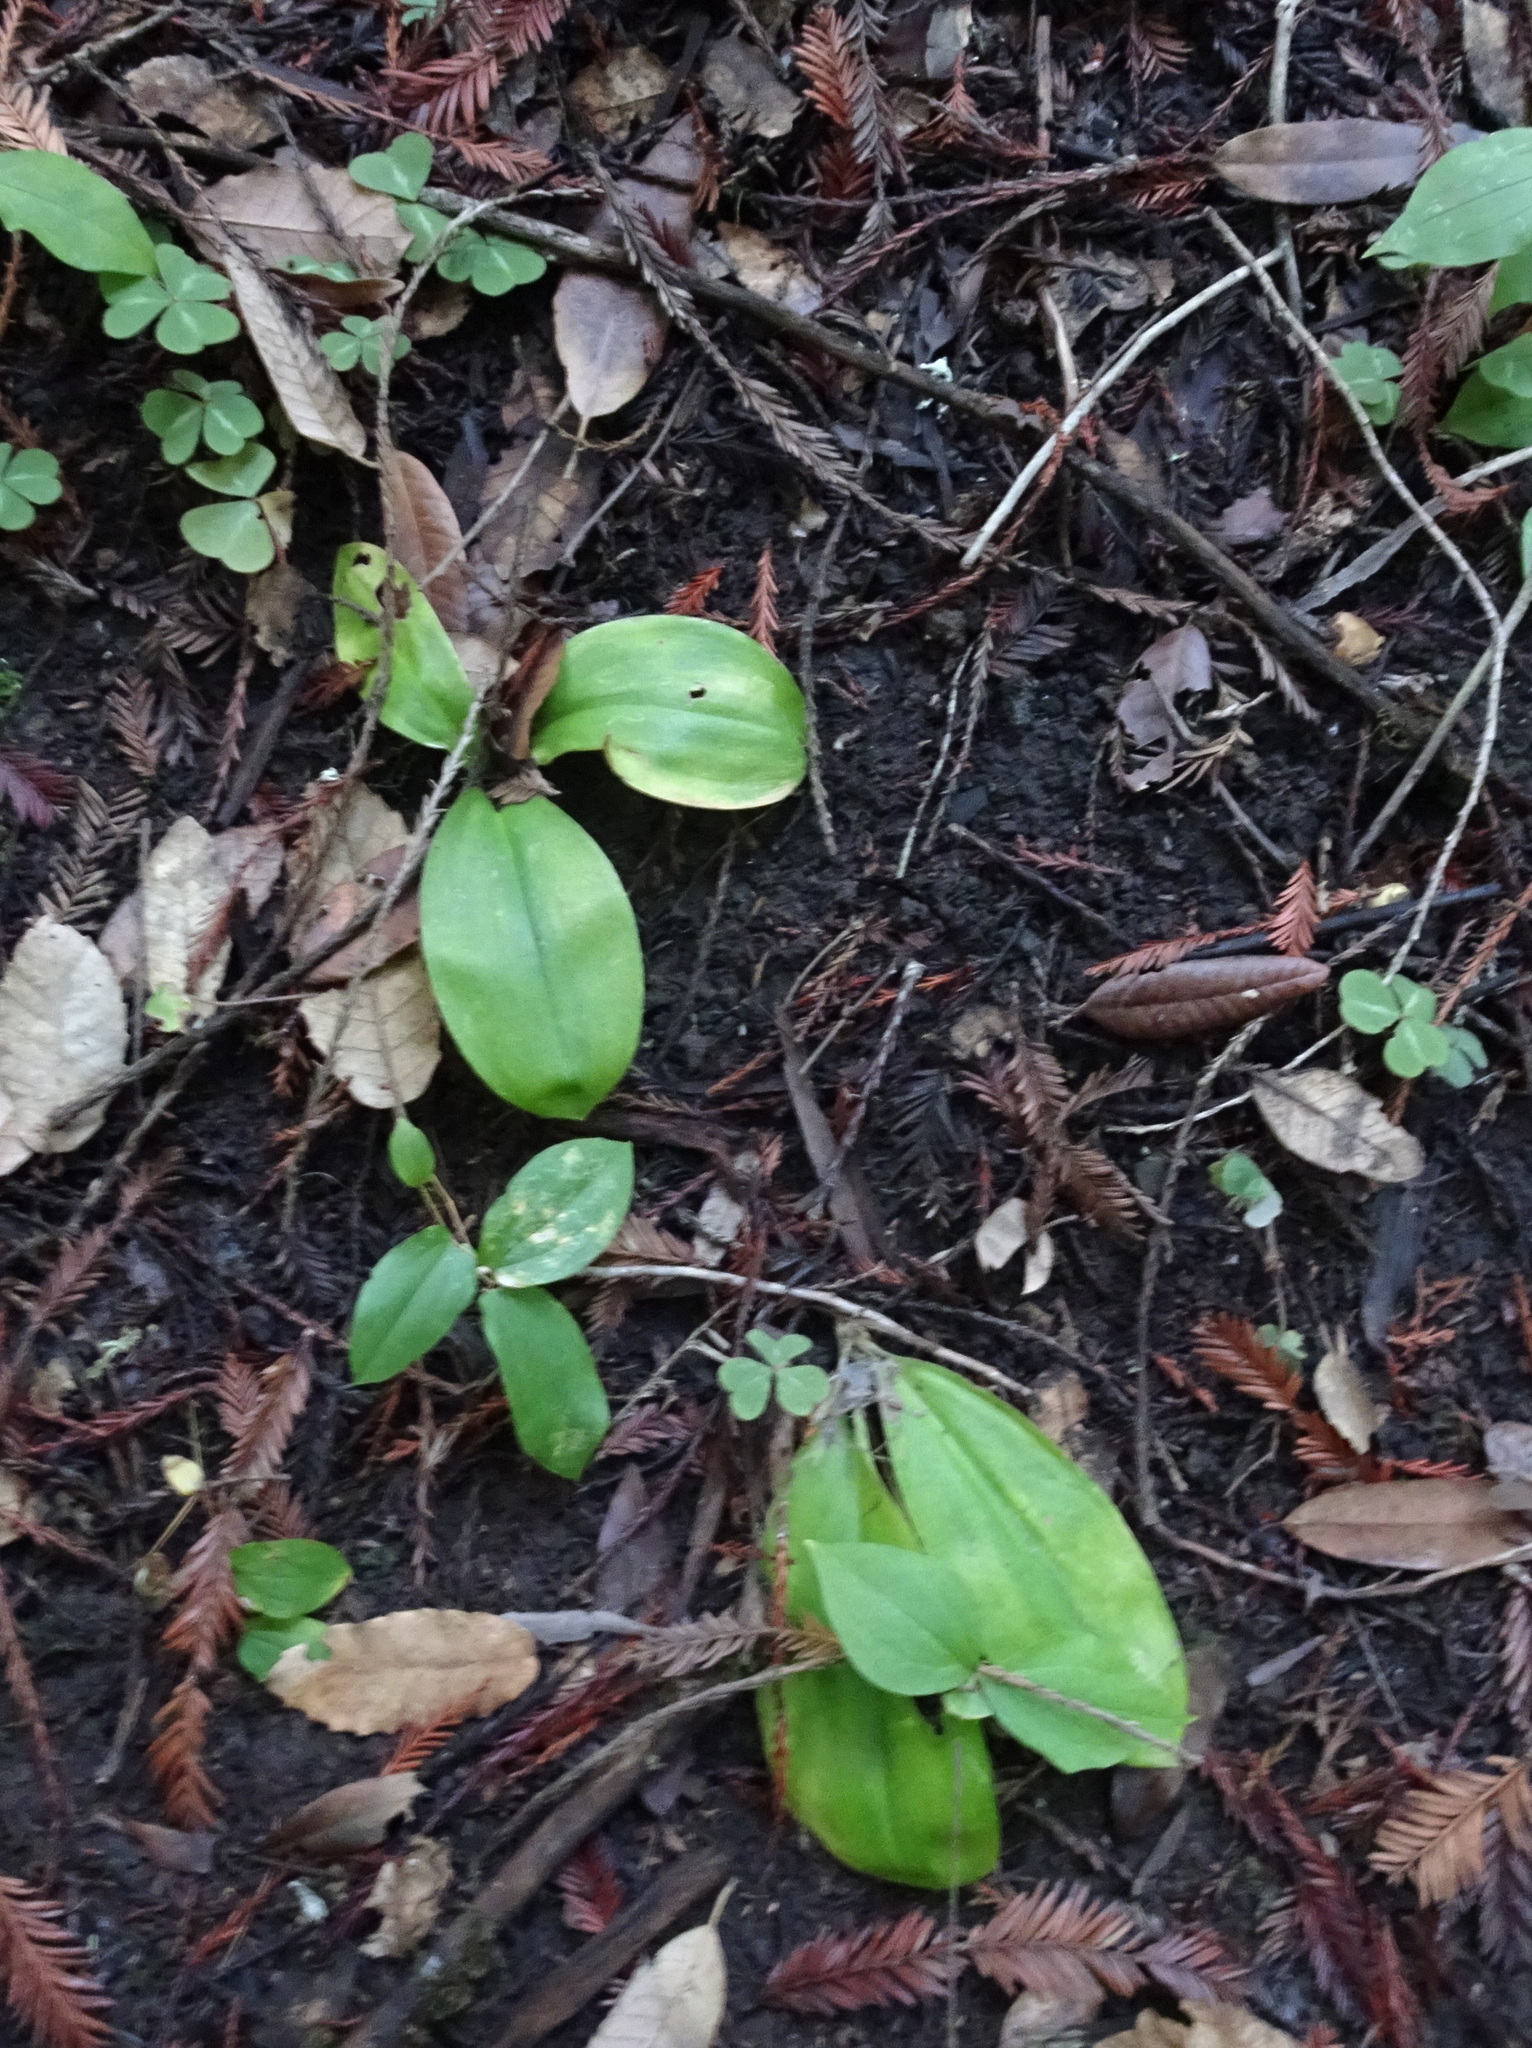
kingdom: Plantae
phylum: Tracheophyta
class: Liliopsida
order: Liliales
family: Liliaceae
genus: Clintonia
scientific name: Clintonia andrewsiana
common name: Red clintonia
